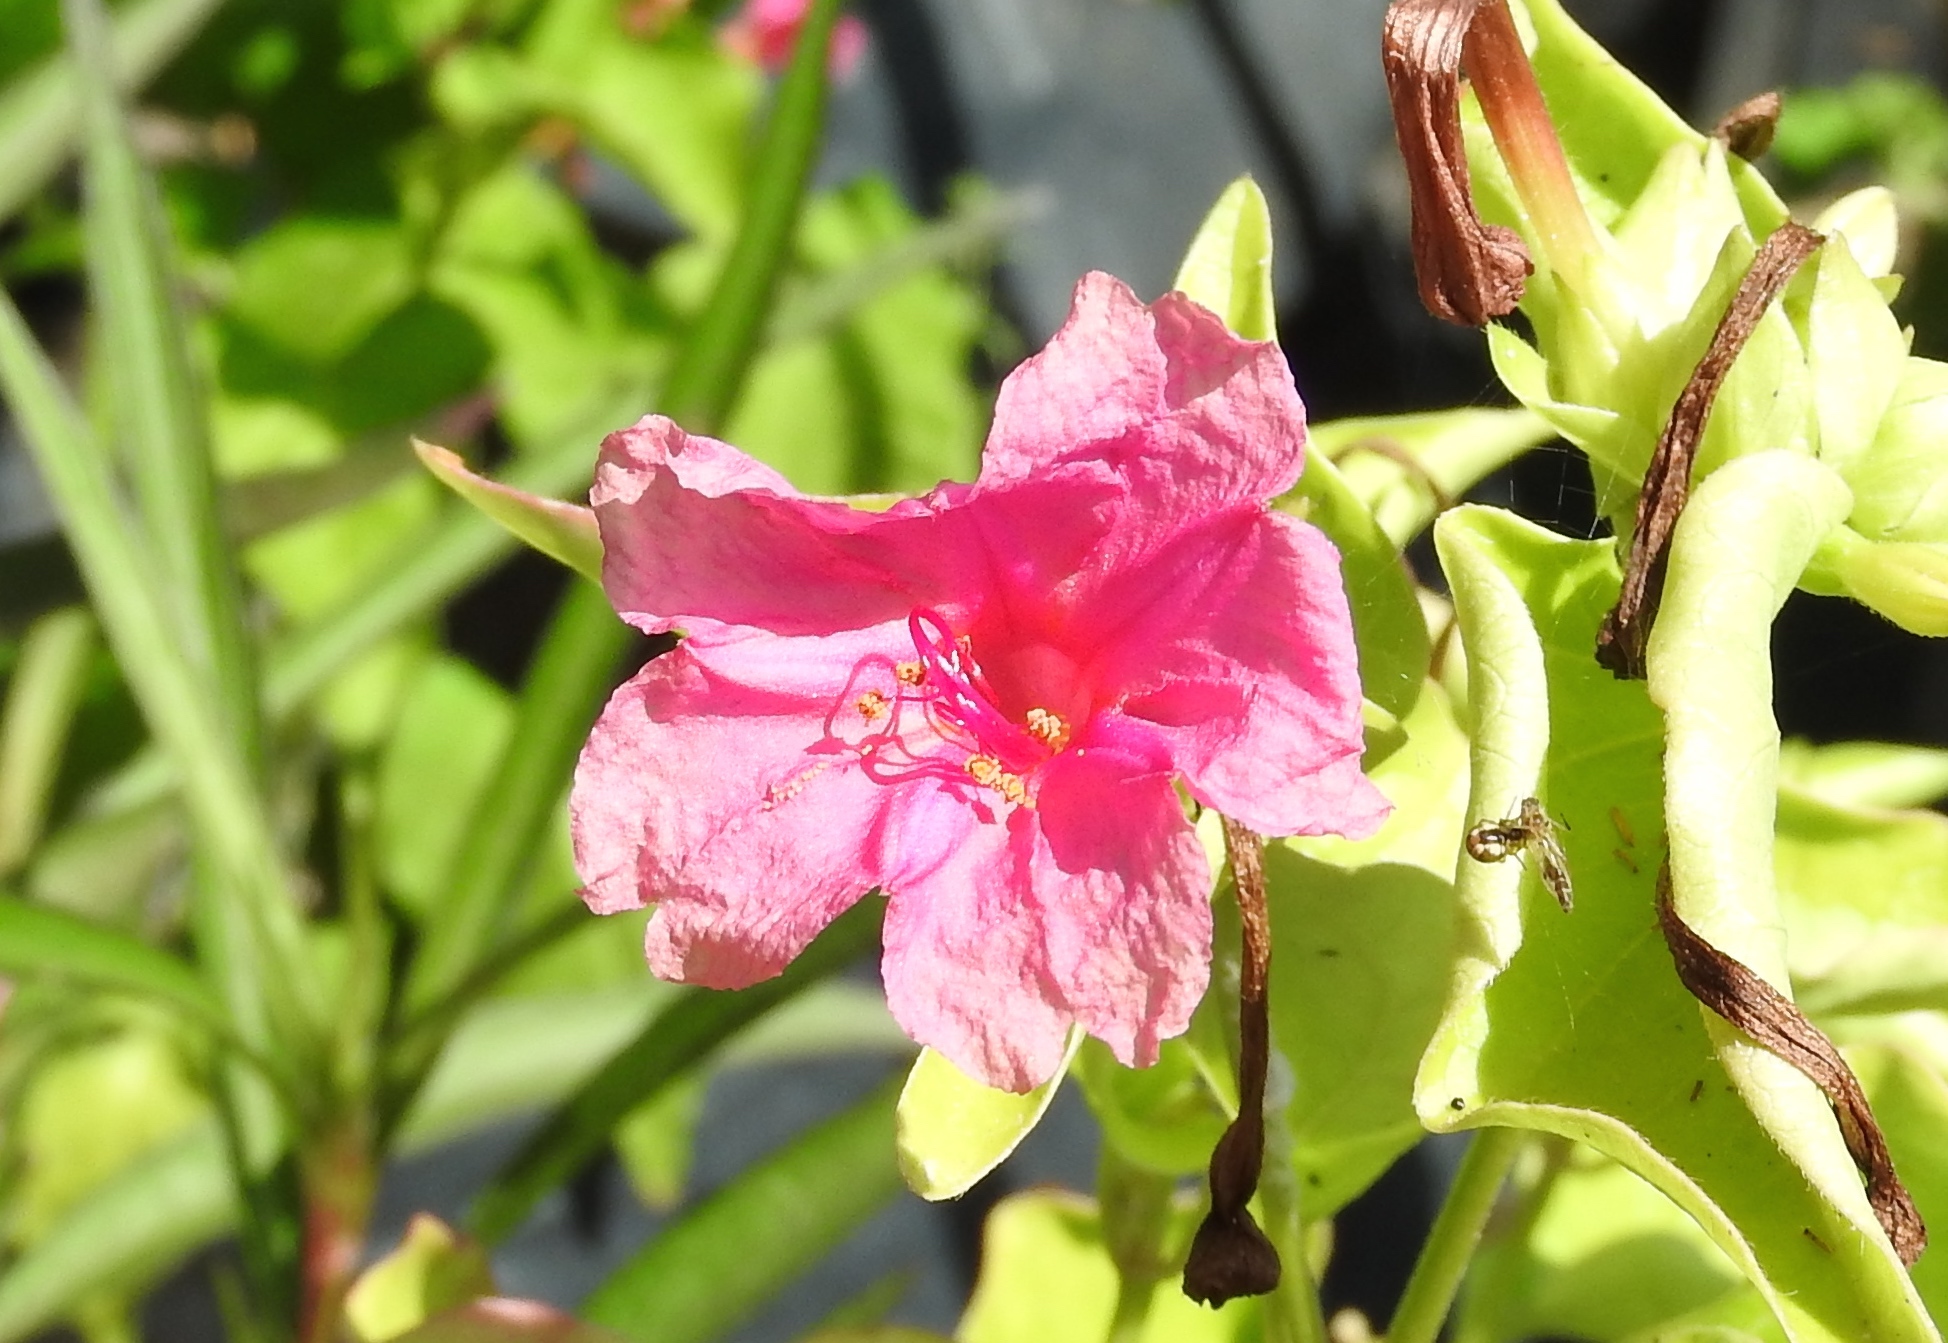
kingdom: Plantae
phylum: Tracheophyta
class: Magnoliopsida
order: Caryophyllales
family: Nyctaginaceae
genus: Mirabilis
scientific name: Mirabilis jalapa
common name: Marvel-of-peru
